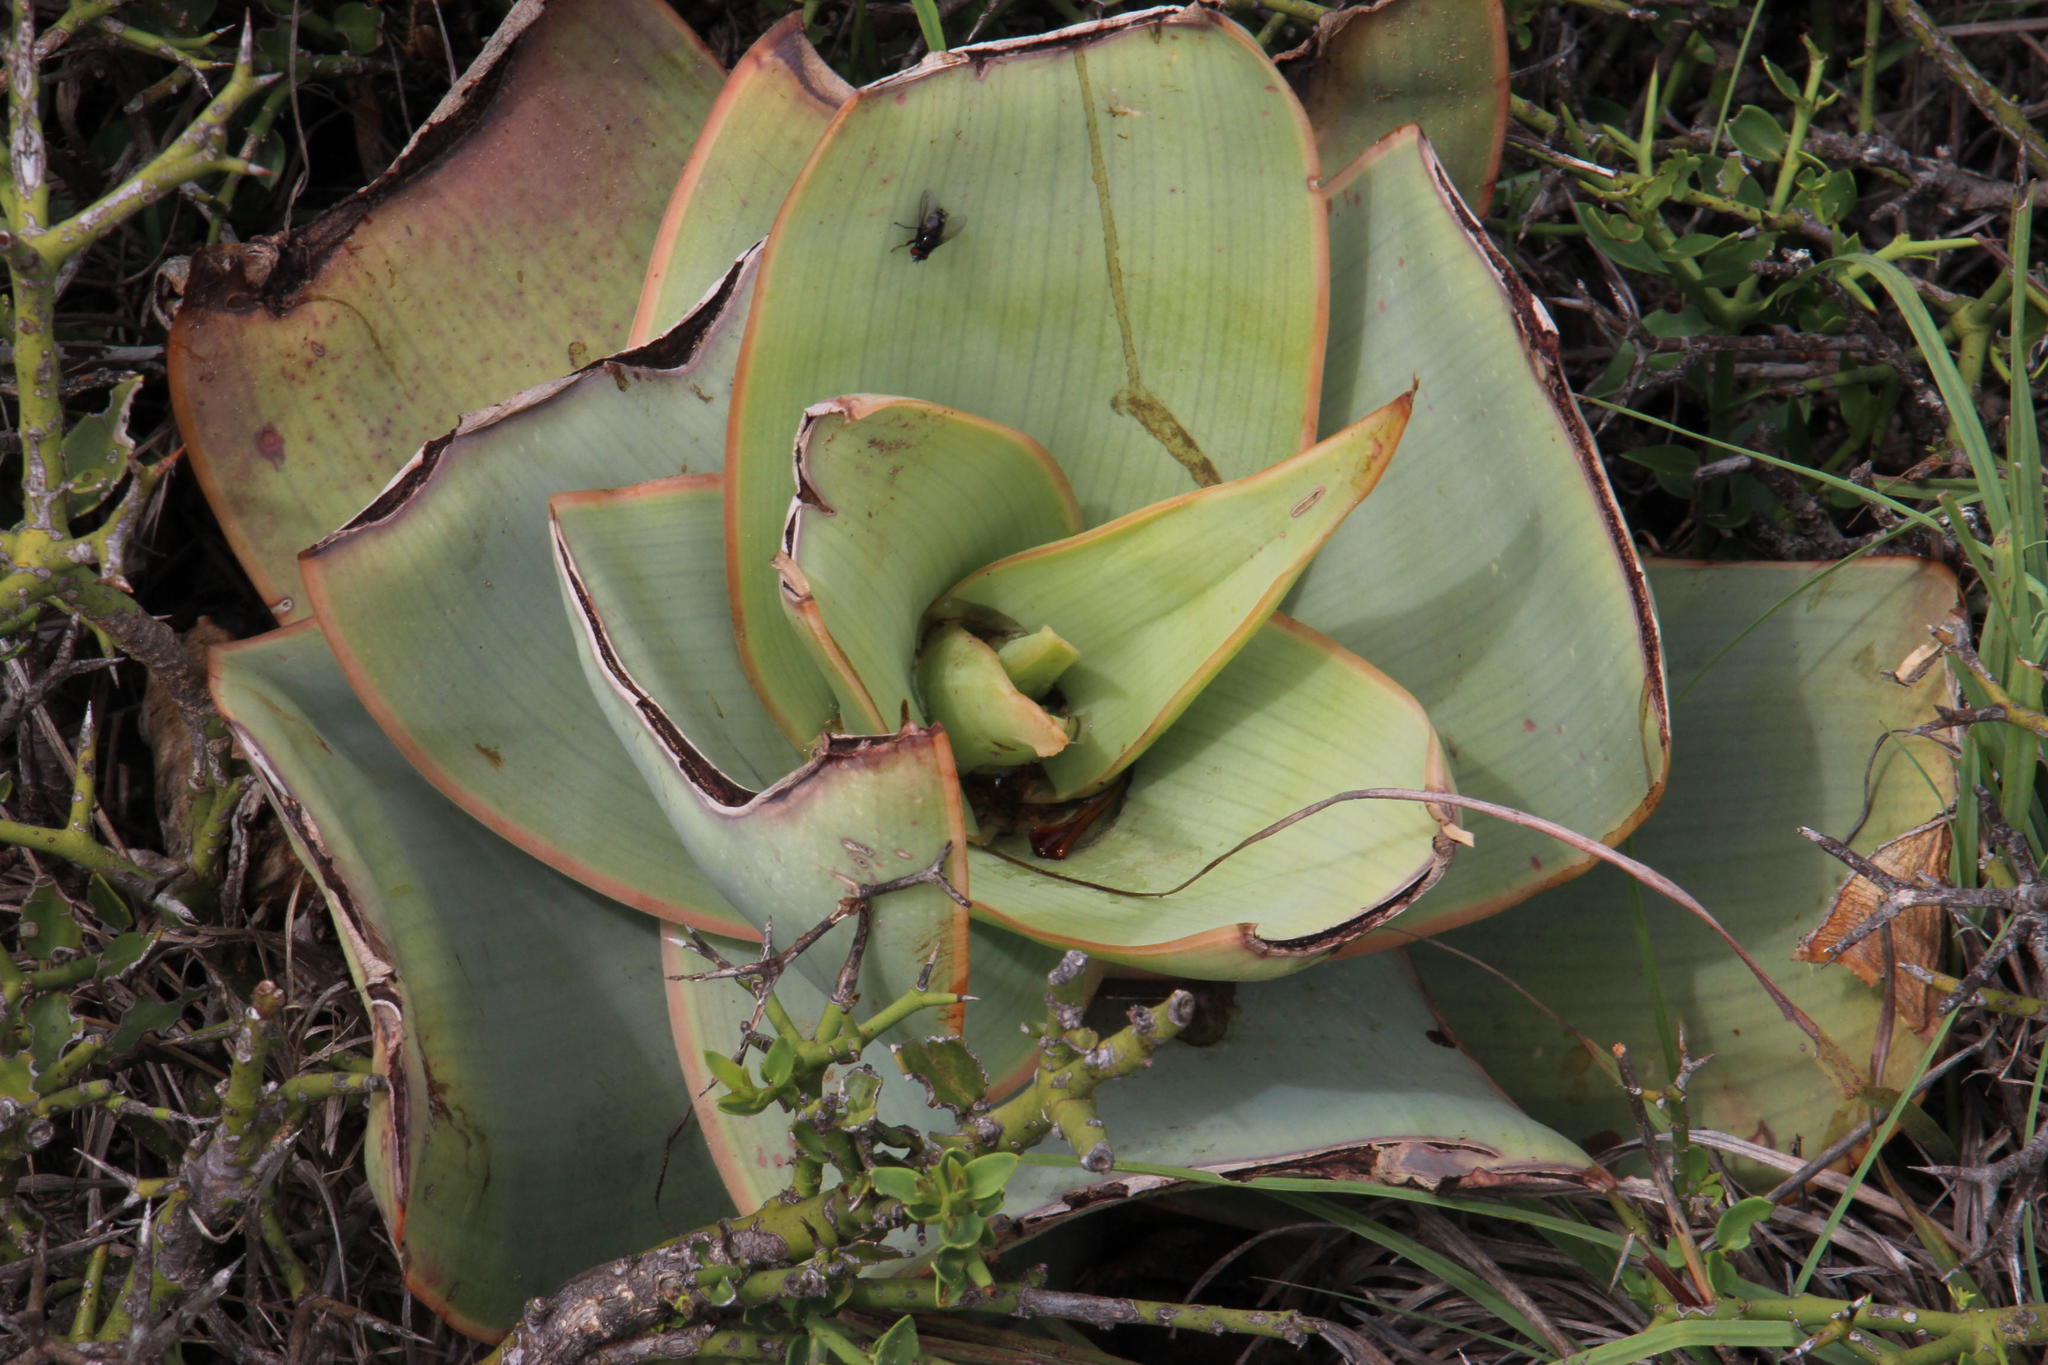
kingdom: Plantae
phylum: Tracheophyta
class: Liliopsida
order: Asparagales
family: Asphodelaceae
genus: Aloe
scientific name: Aloe striata
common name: Coral aloe
